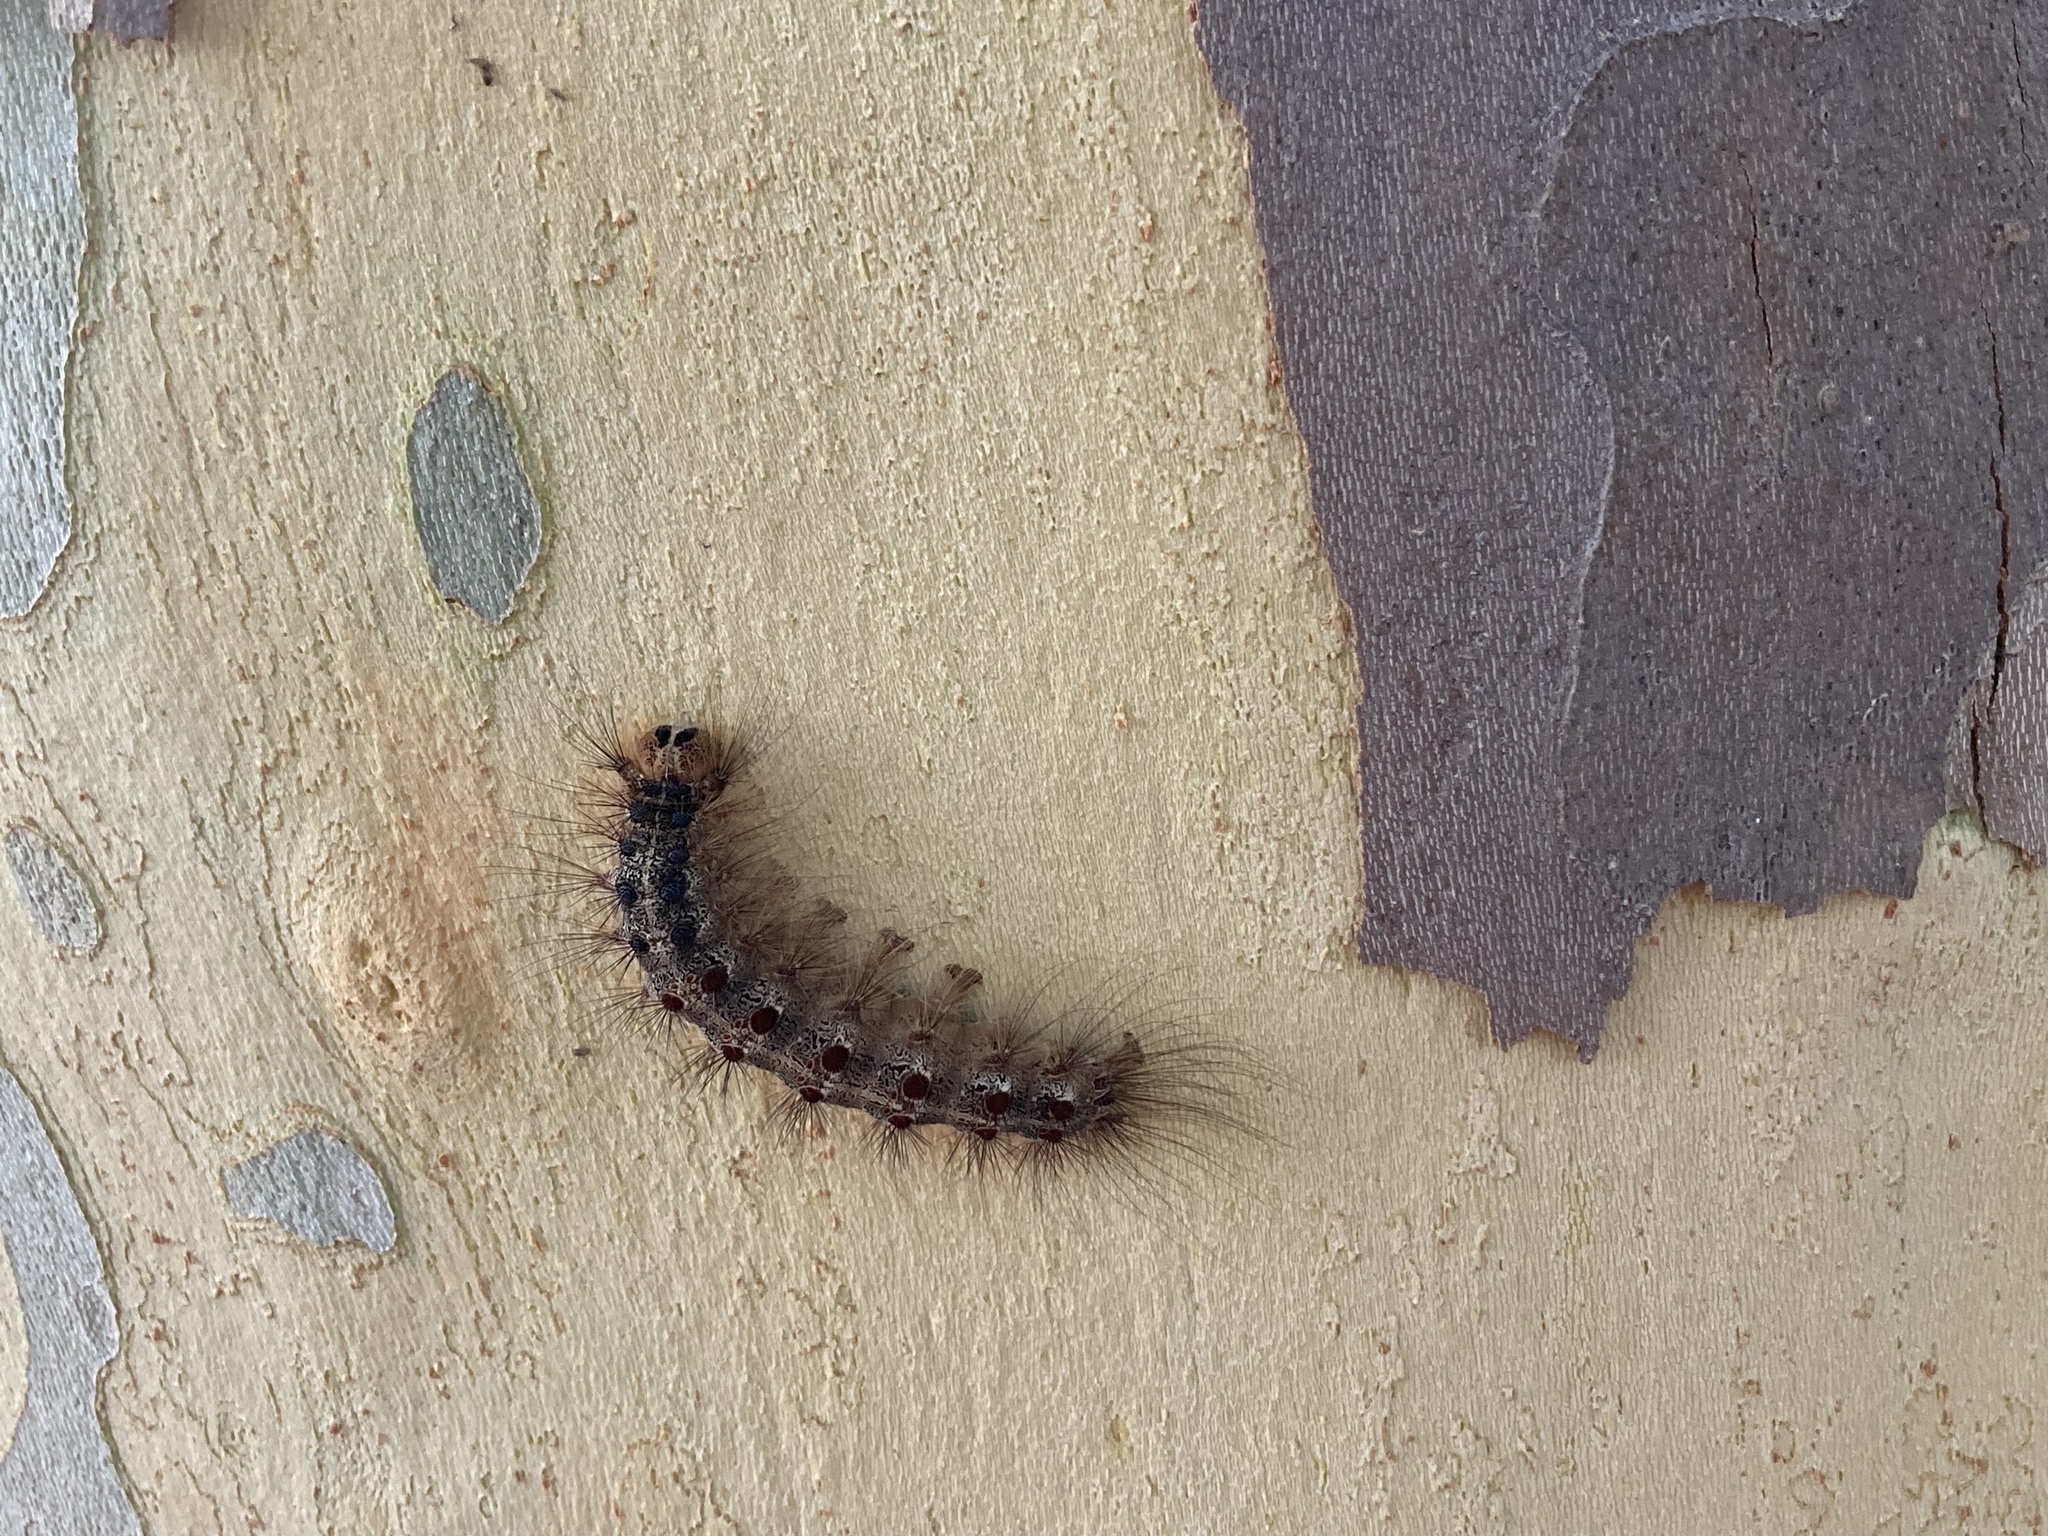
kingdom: Animalia
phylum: Arthropoda
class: Insecta
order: Lepidoptera
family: Erebidae
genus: Lymantria
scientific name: Lymantria dispar
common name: Gypsy moth
